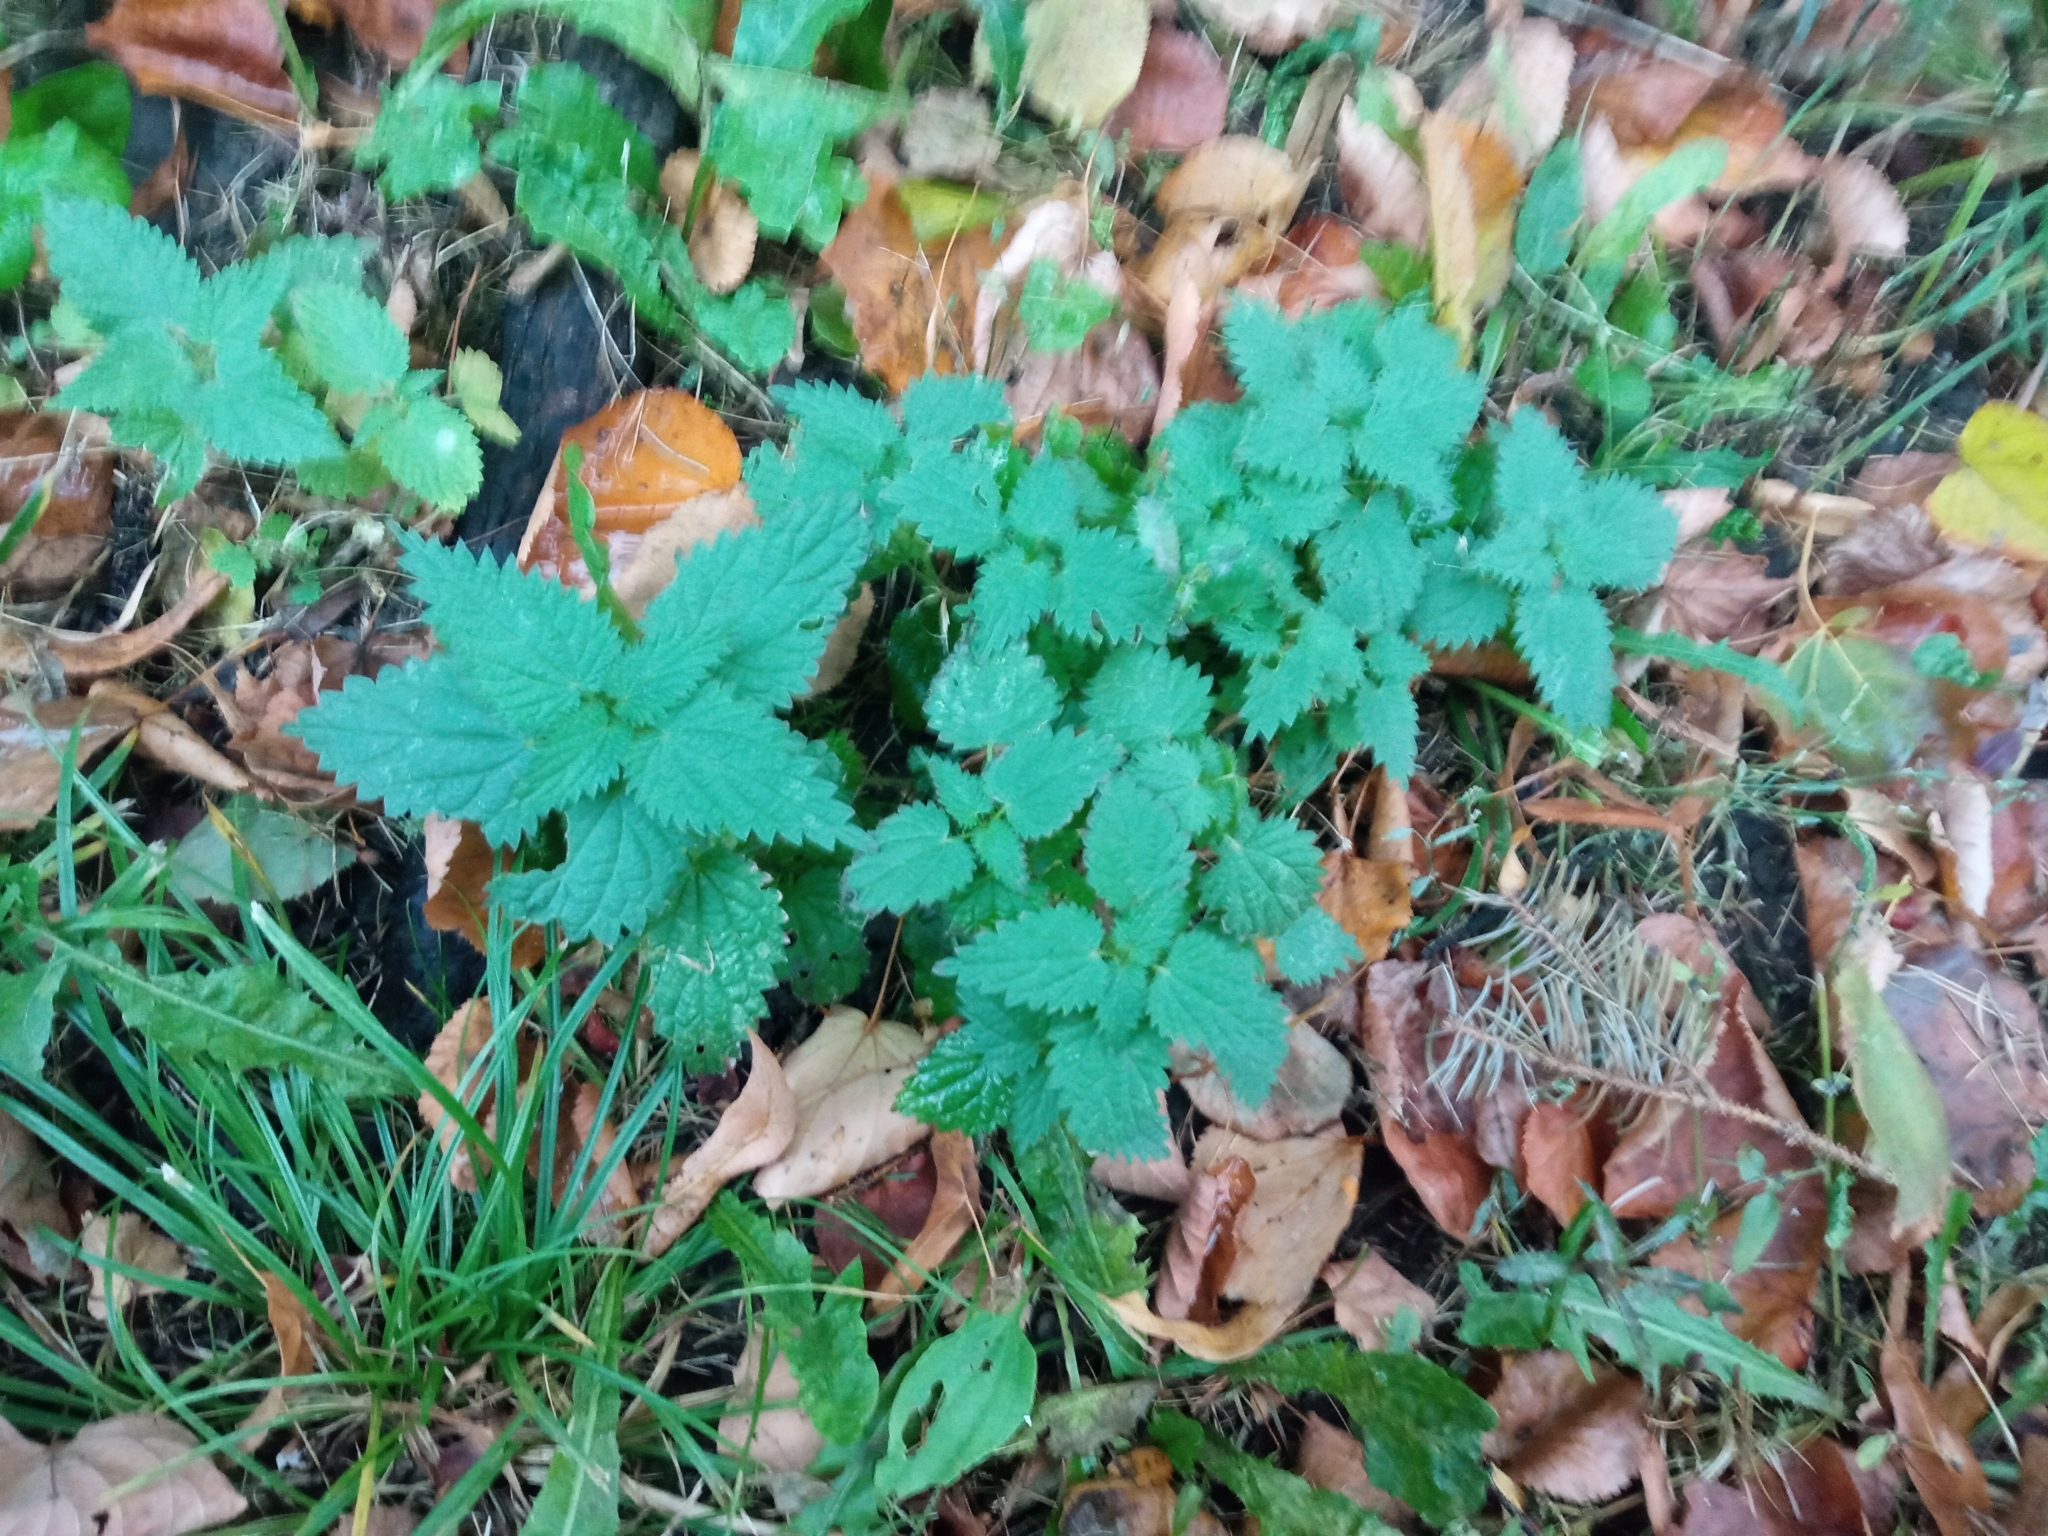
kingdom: Plantae
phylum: Tracheophyta
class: Magnoliopsida
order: Rosales
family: Urticaceae
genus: Urtica
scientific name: Urtica dioica
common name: Common nettle
